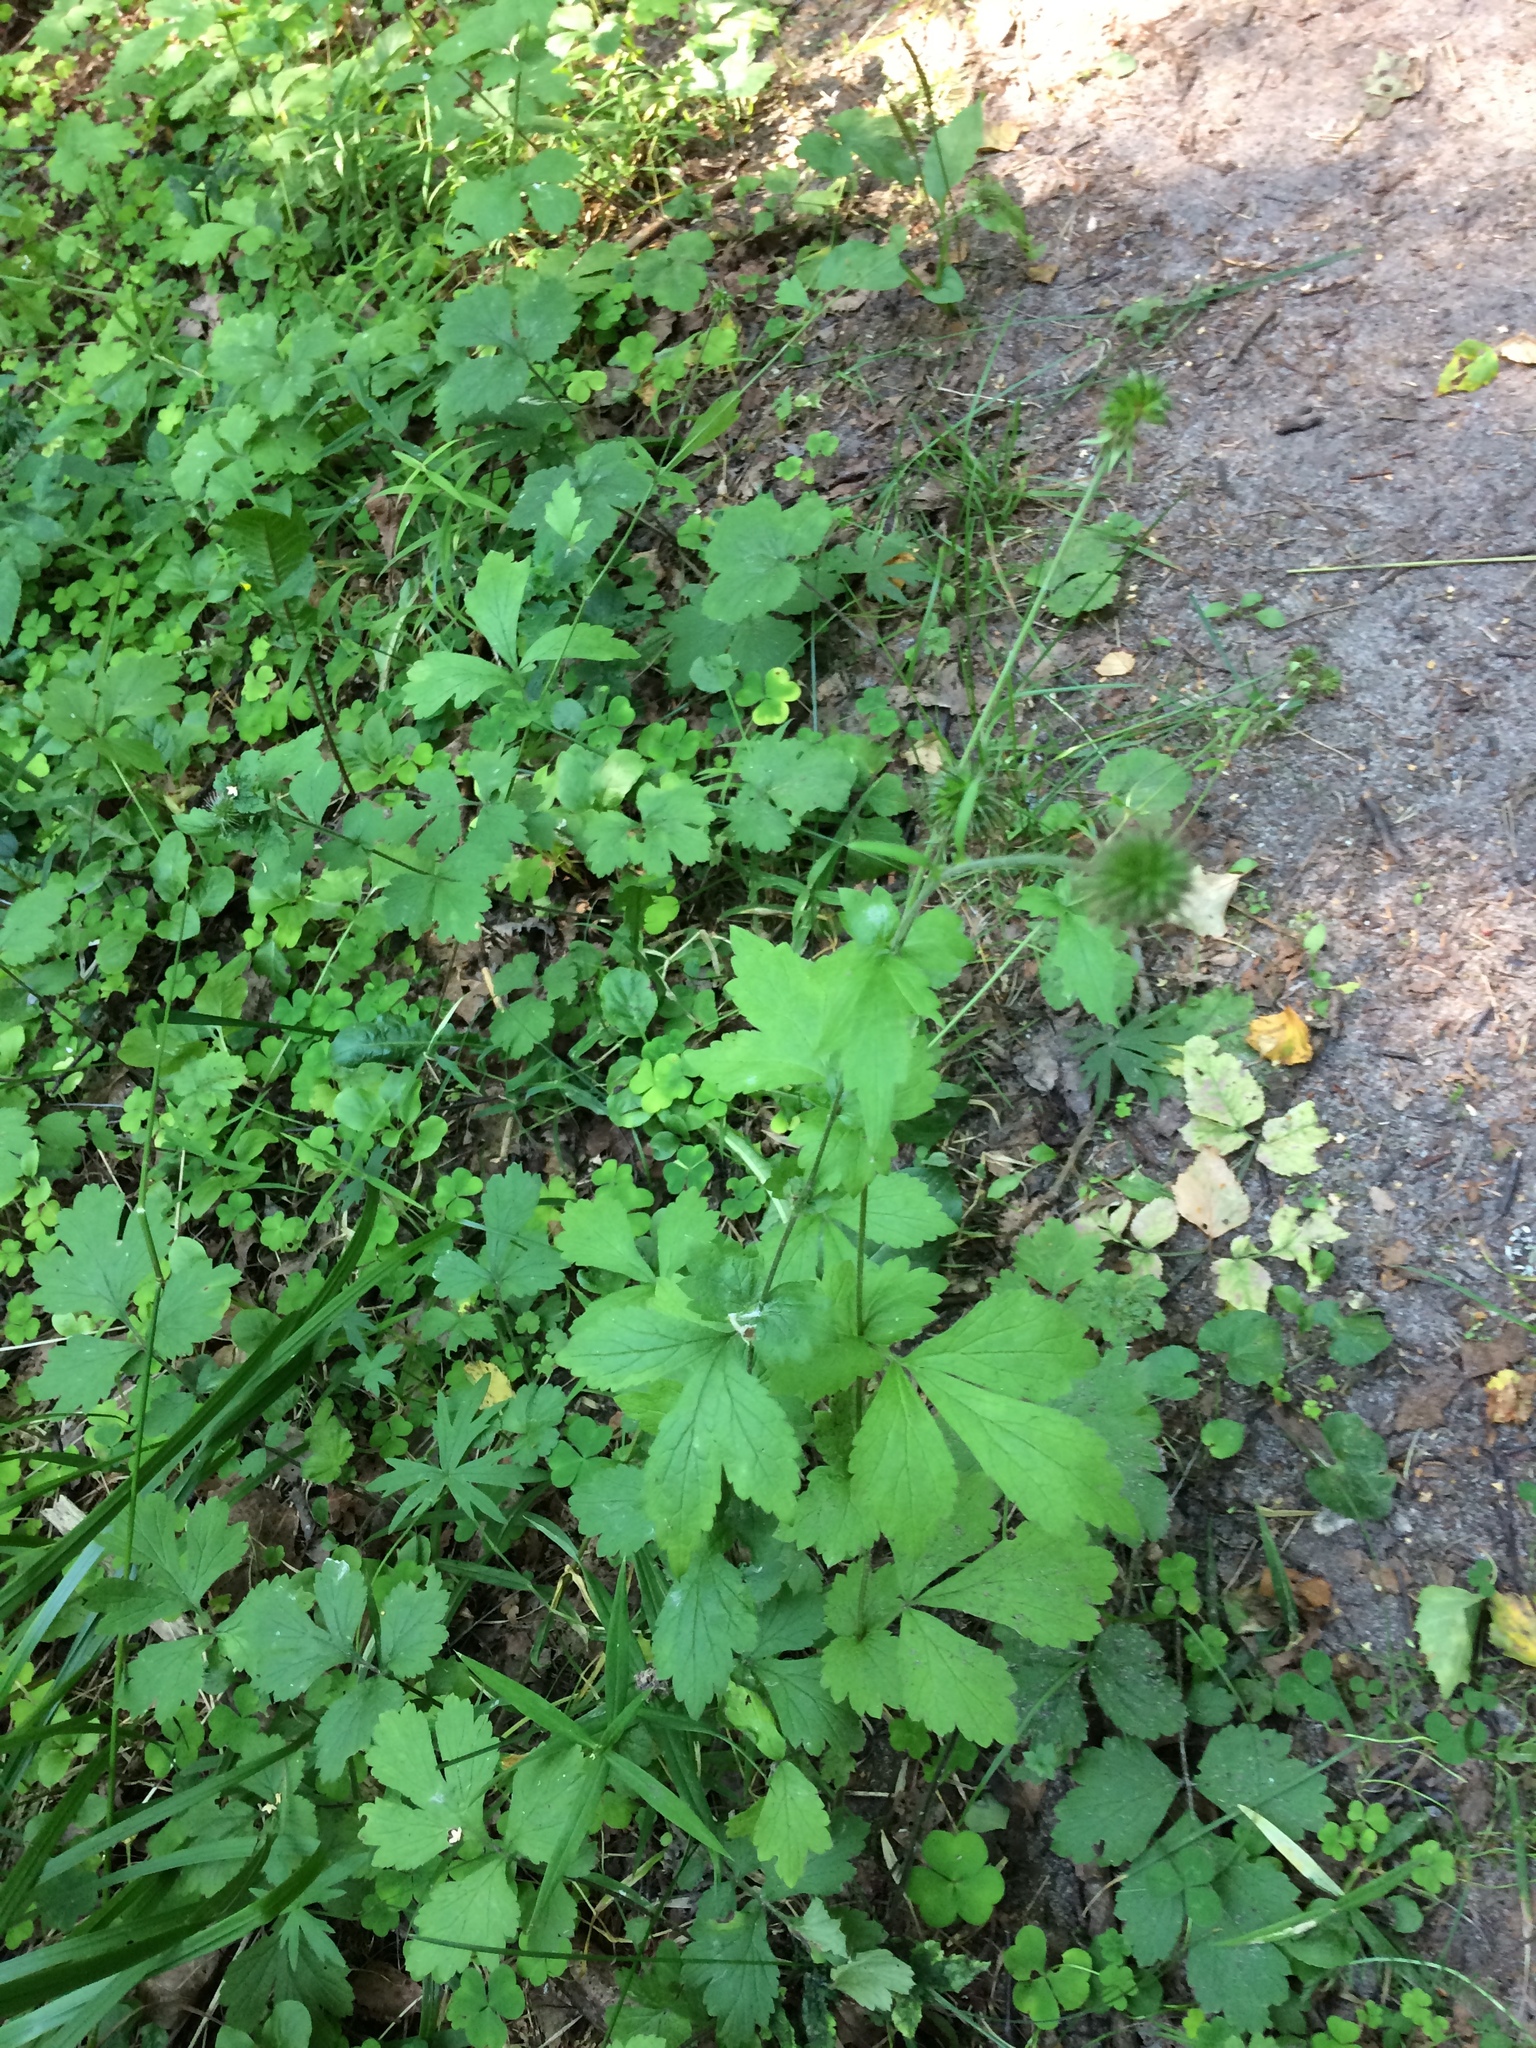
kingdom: Plantae
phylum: Tracheophyta
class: Magnoliopsida
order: Rosales
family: Rosaceae
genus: Geum
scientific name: Geum urbanum
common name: Wood avens
